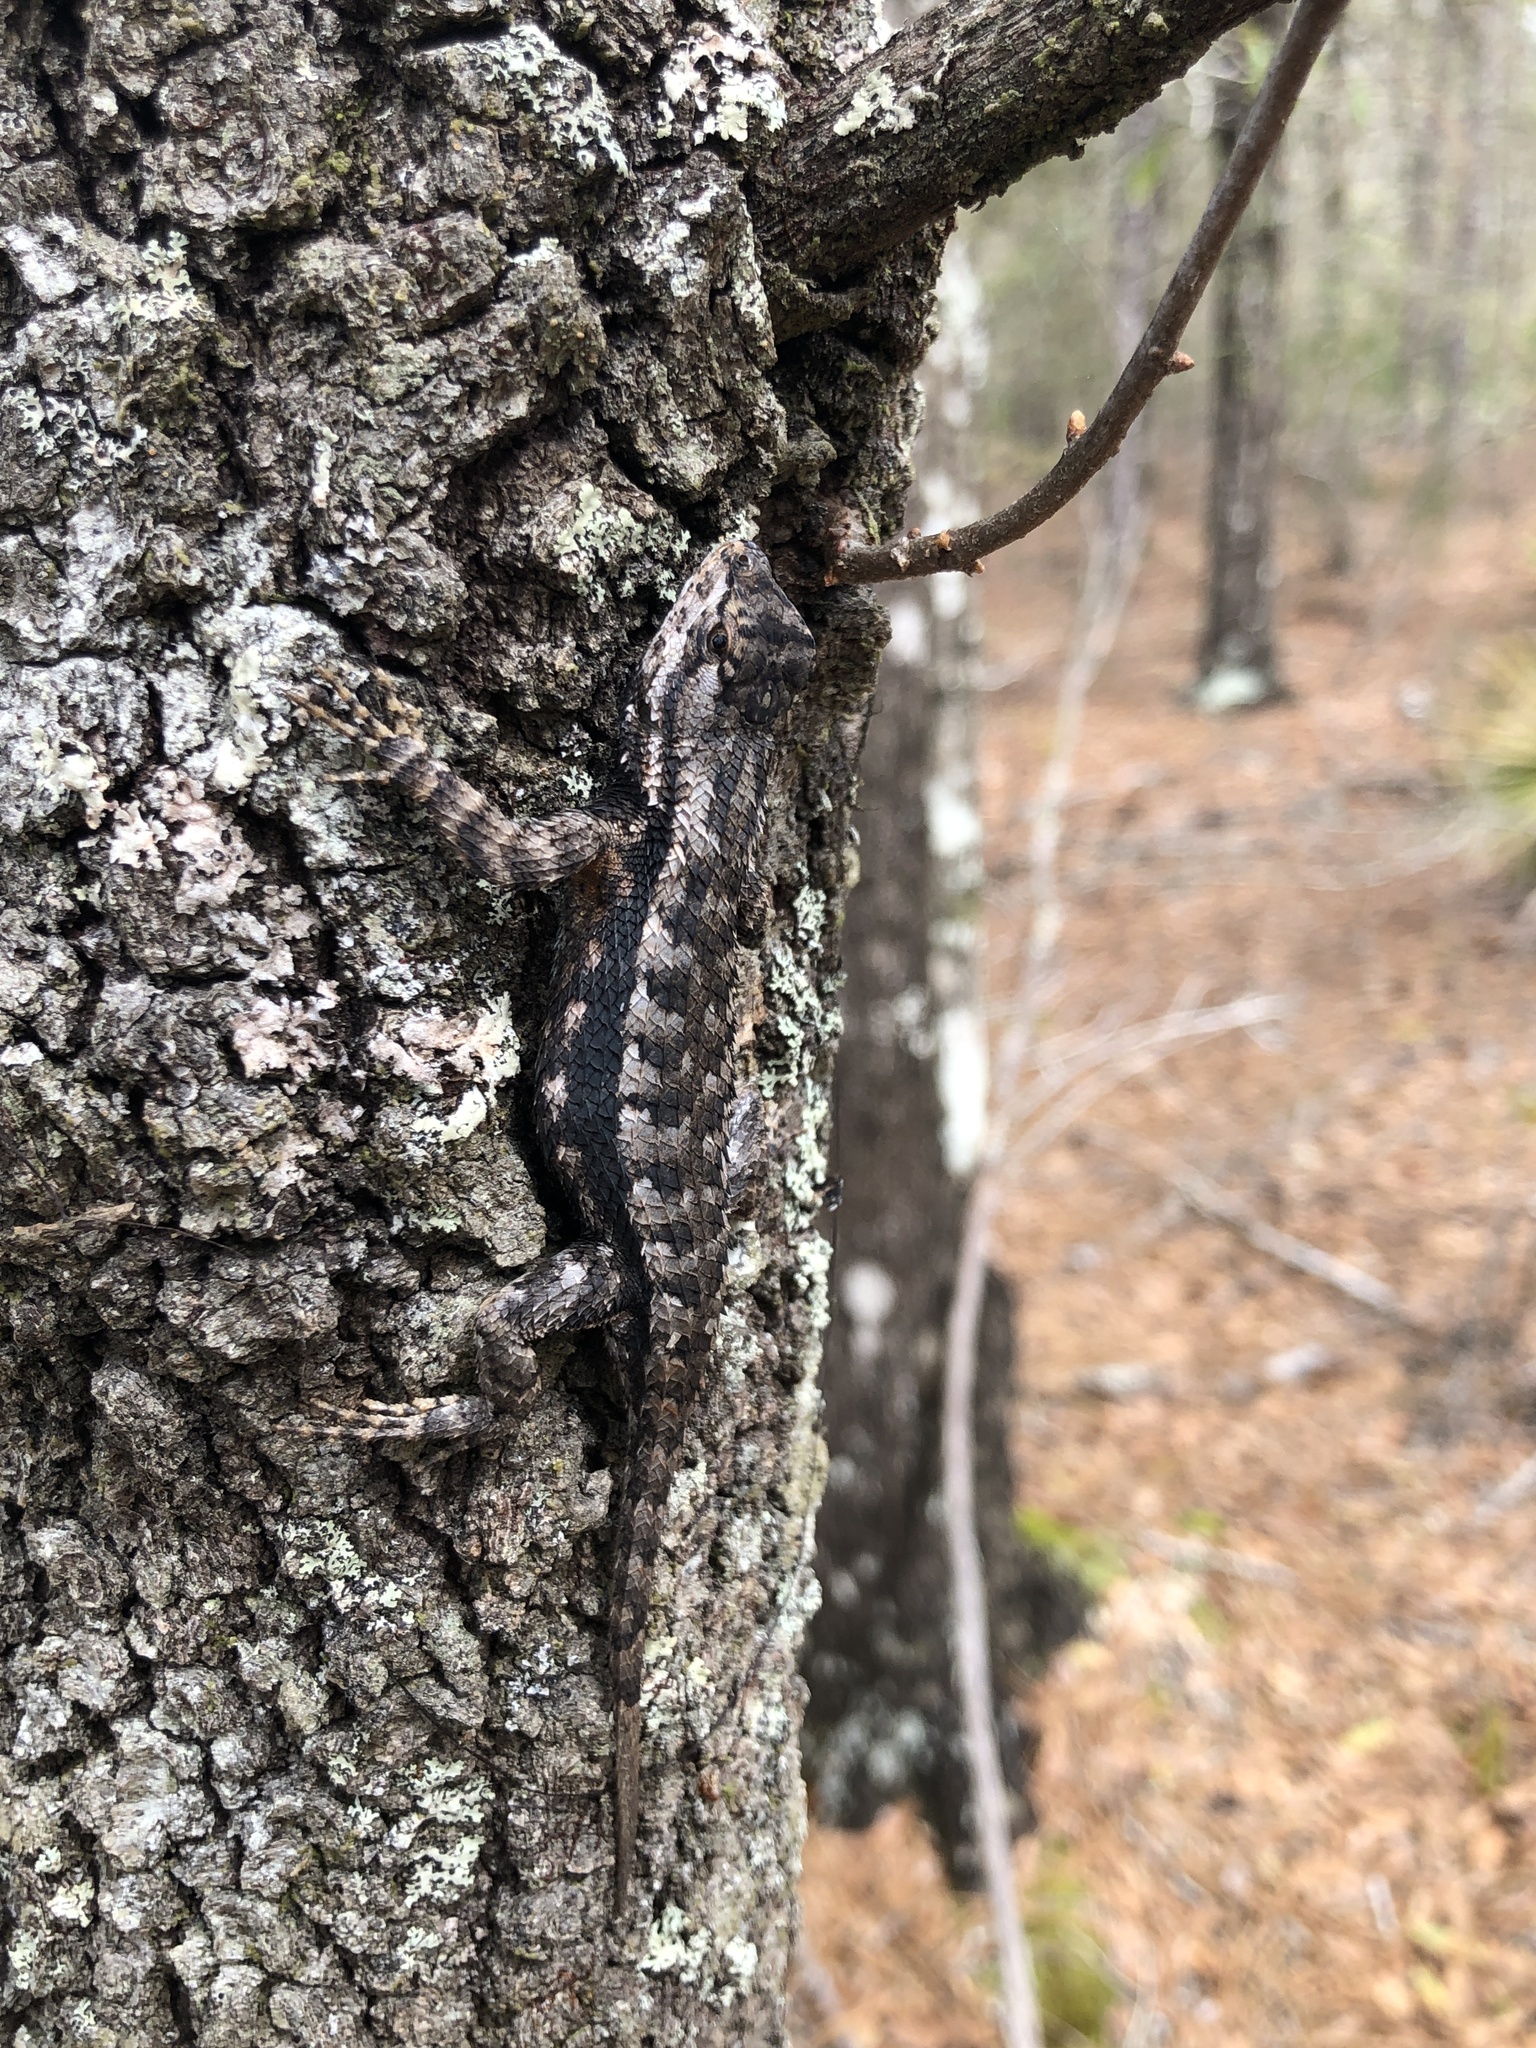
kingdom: Animalia
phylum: Chordata
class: Squamata
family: Phrynosomatidae
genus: Sceloporus
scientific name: Sceloporus undulatus
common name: Eastern fence lizard
